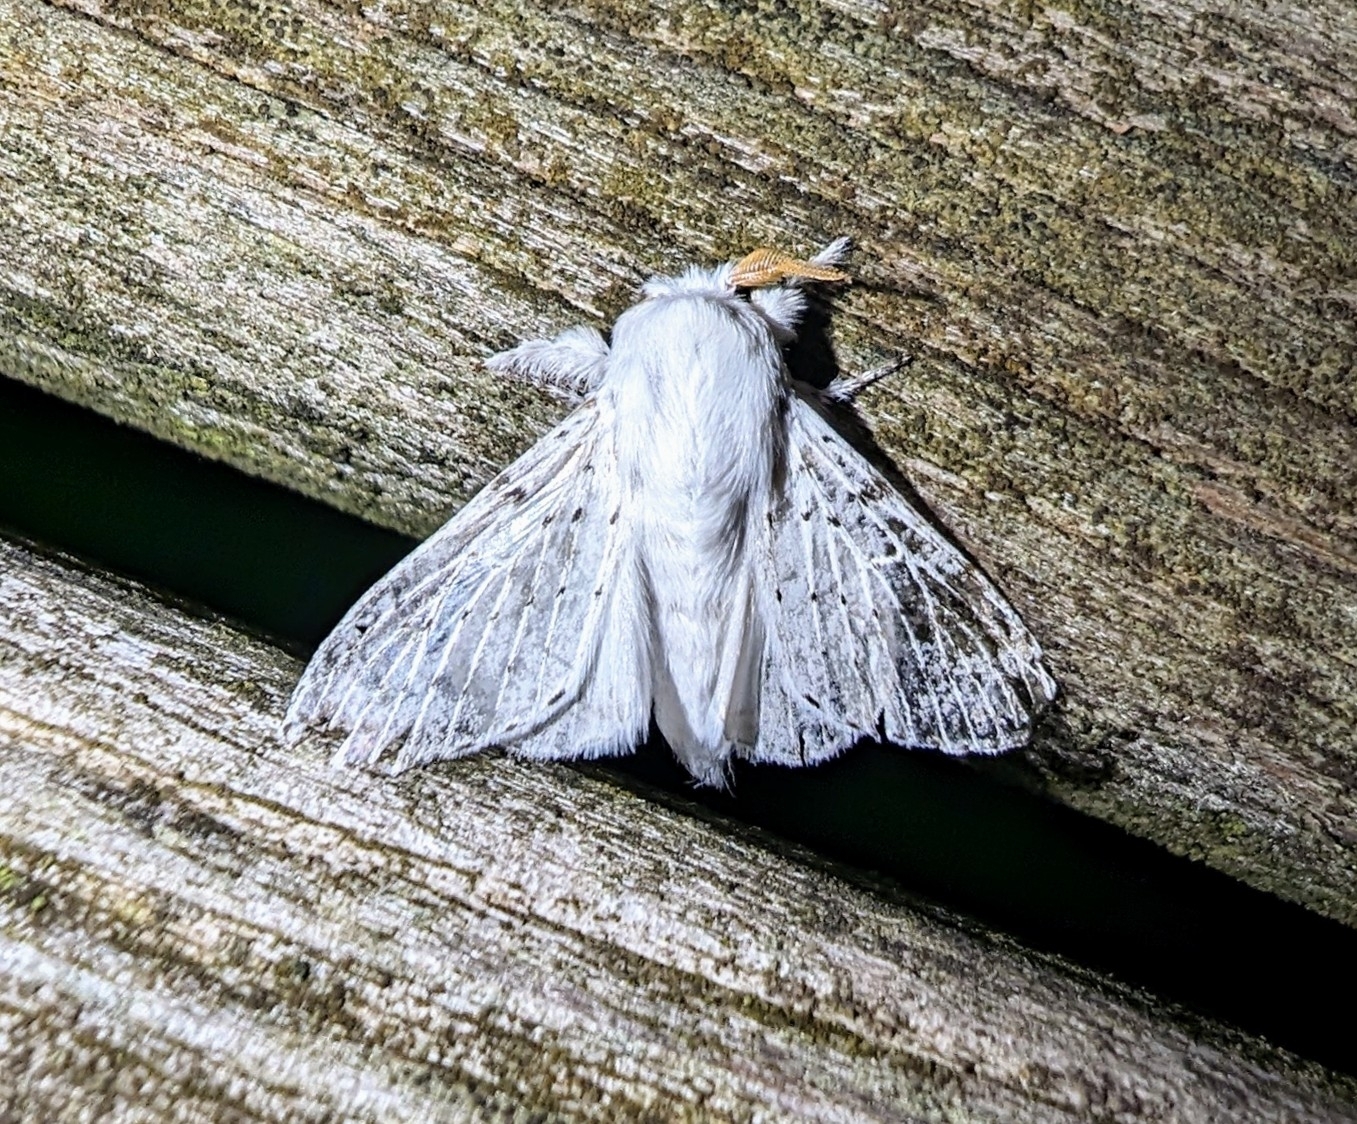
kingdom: Animalia
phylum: Arthropoda
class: Insecta
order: Lepidoptera
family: Lasiocampidae
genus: Artace
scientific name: Artace cribrarius
